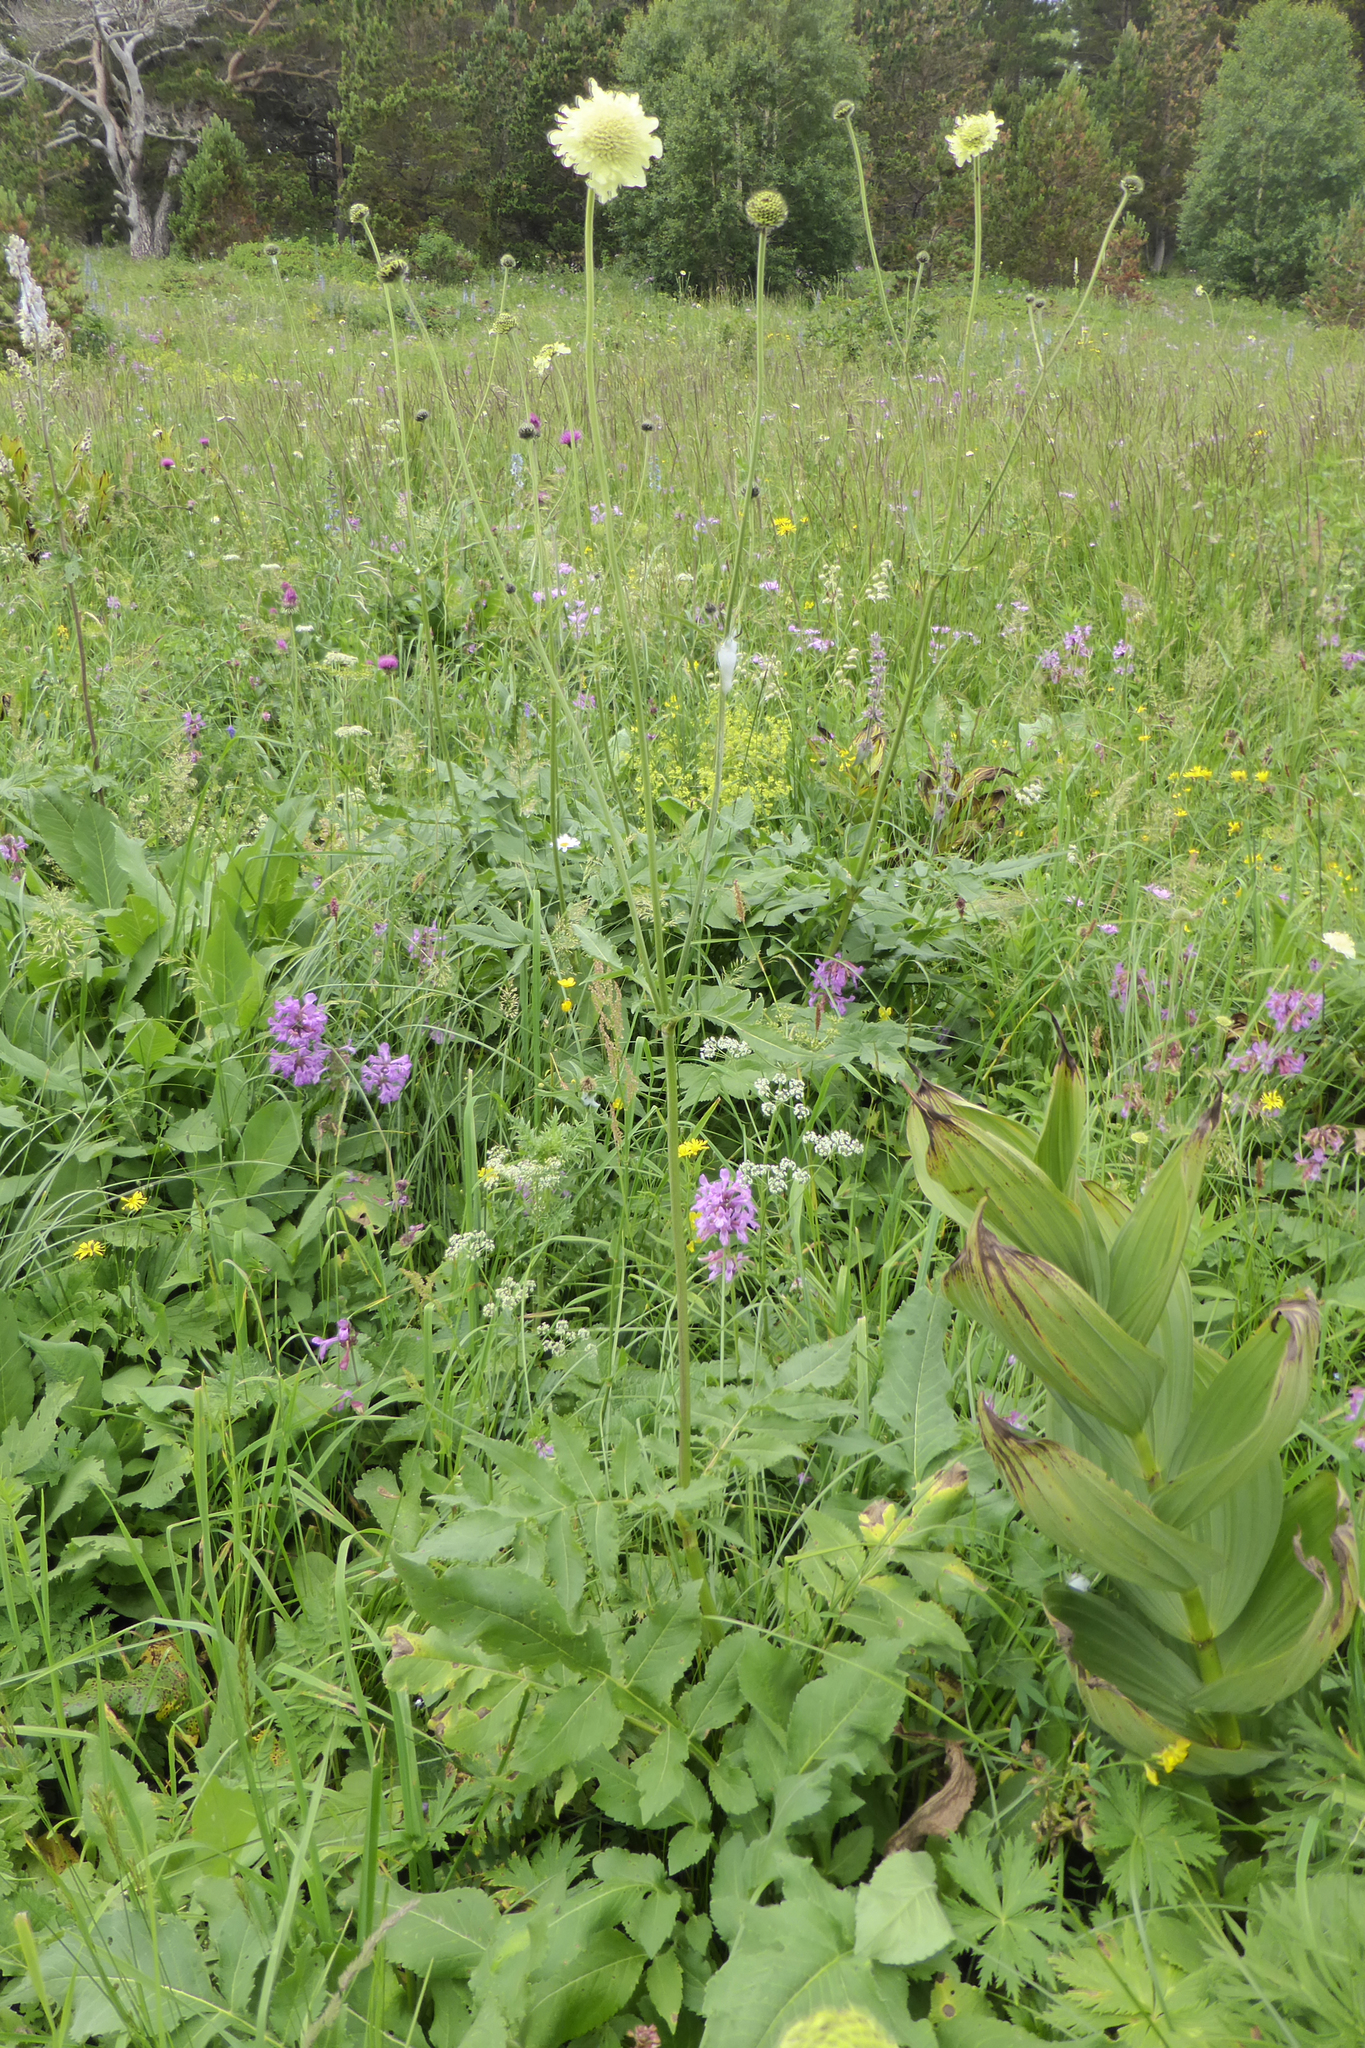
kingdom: Plantae
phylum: Tracheophyta
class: Magnoliopsida
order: Dipsacales
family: Caprifoliaceae
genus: Cephalaria
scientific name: Cephalaria gigantea
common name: Tatarian cephalaria
